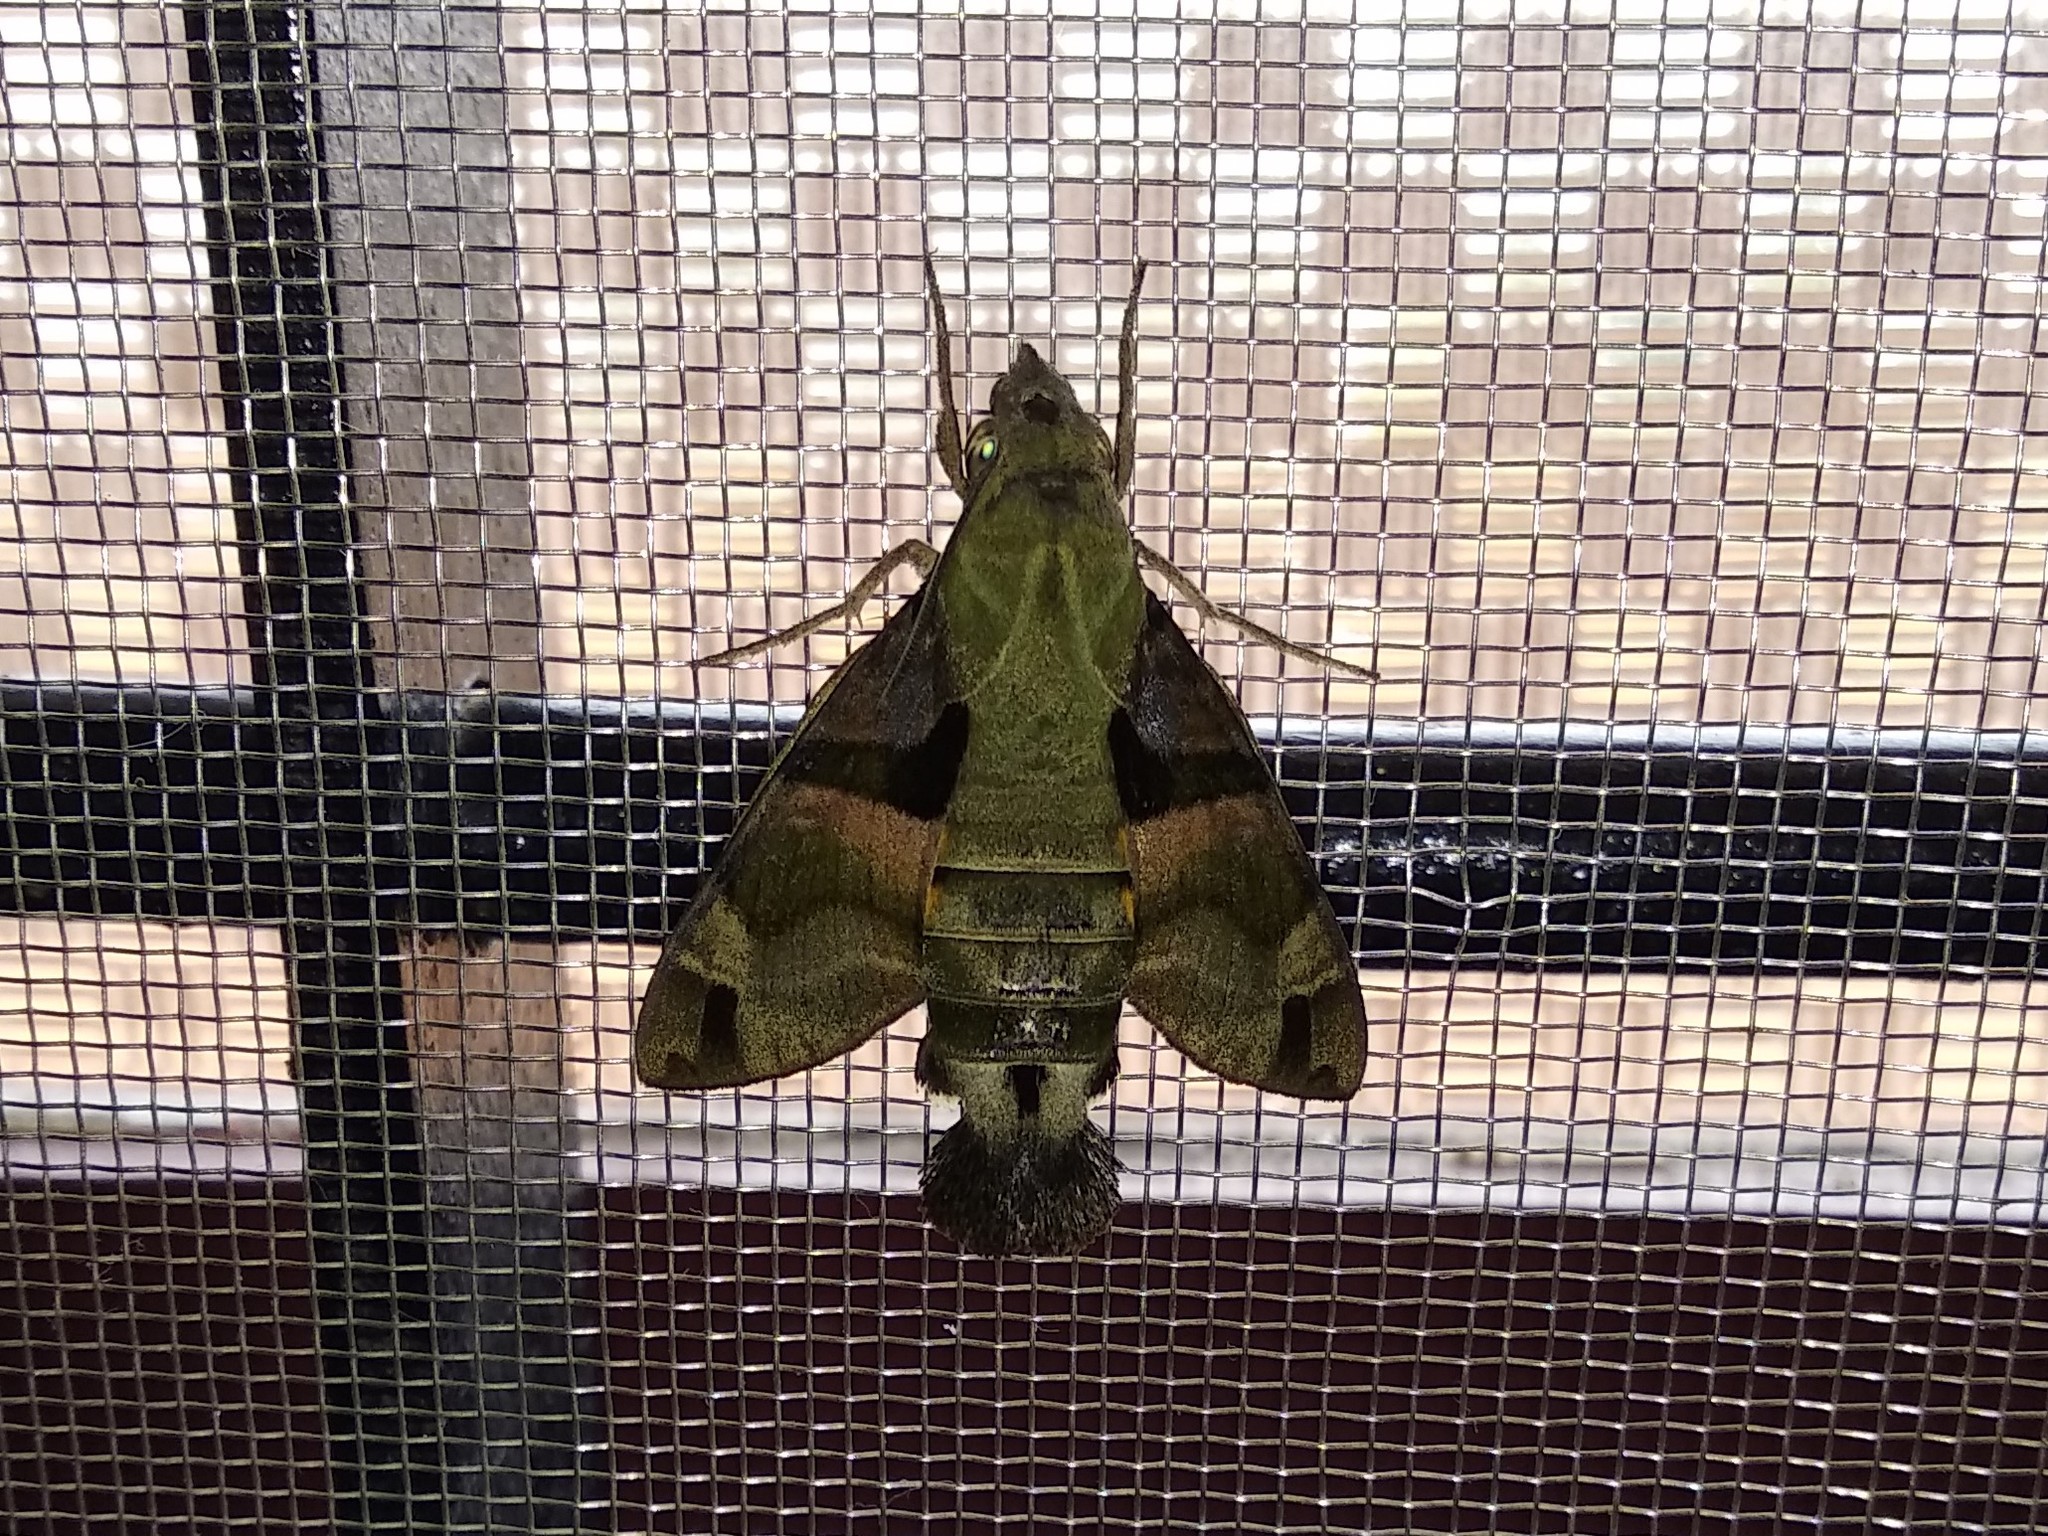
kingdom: Animalia
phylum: Arthropoda
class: Insecta
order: Lepidoptera
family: Sphingidae
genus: Macroglossum
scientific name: Macroglossum sitiene
